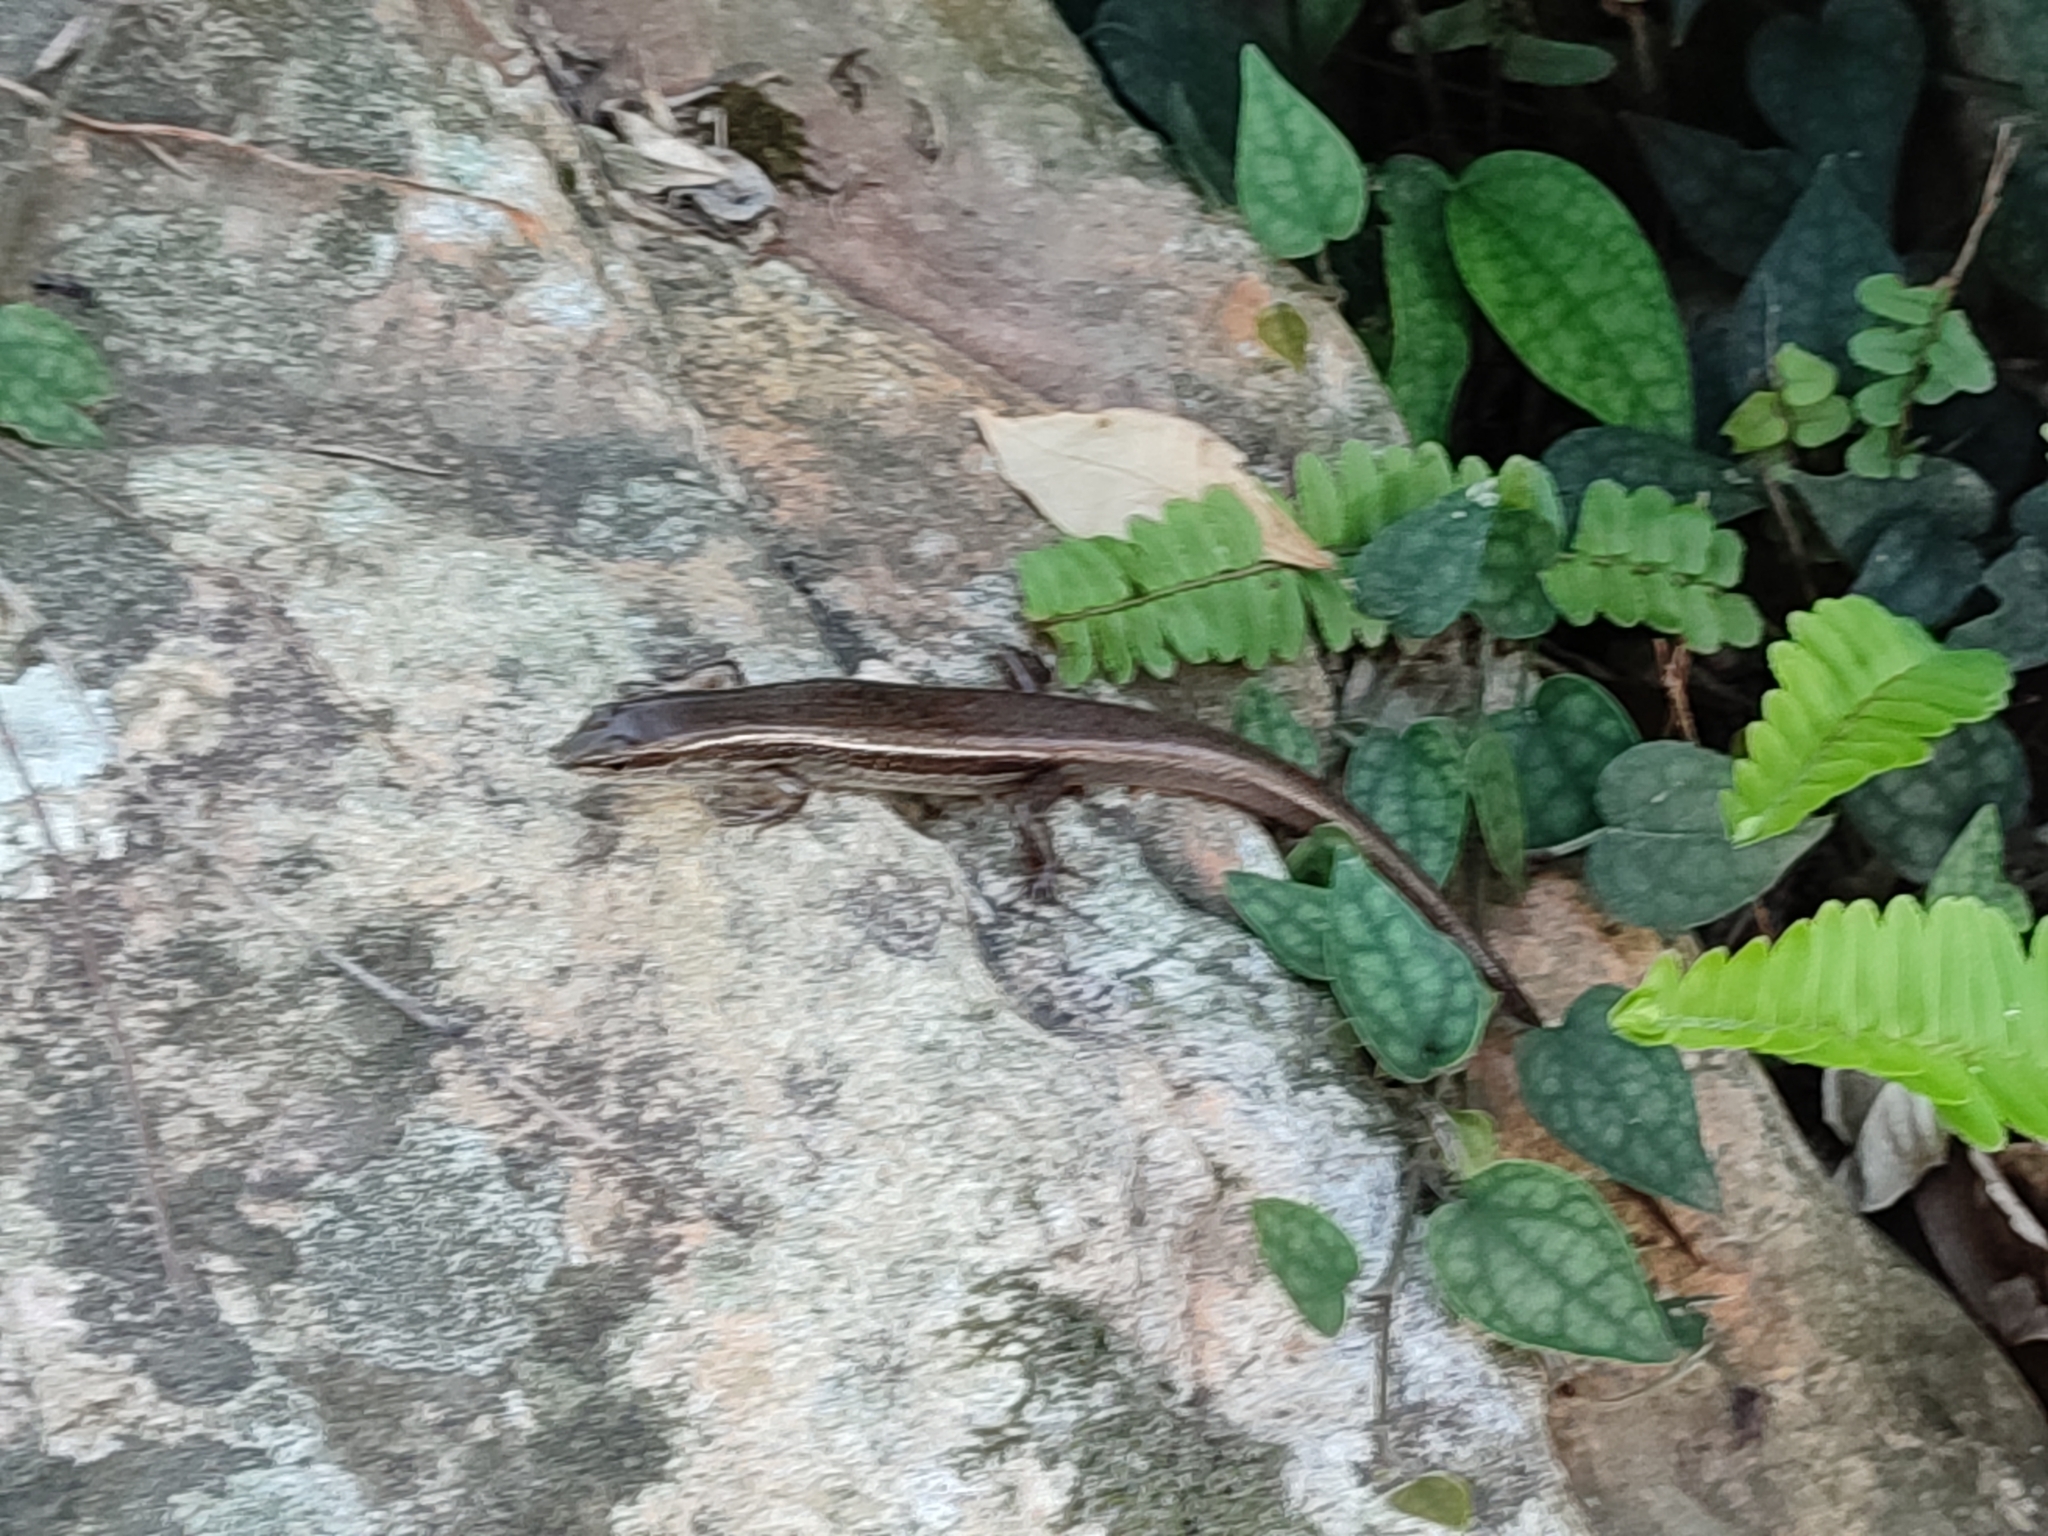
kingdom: Animalia
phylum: Chordata
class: Squamata
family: Scincidae
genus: Sphenomorphus
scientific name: Sphenomorphus indicus
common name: Himalayan forest skink
